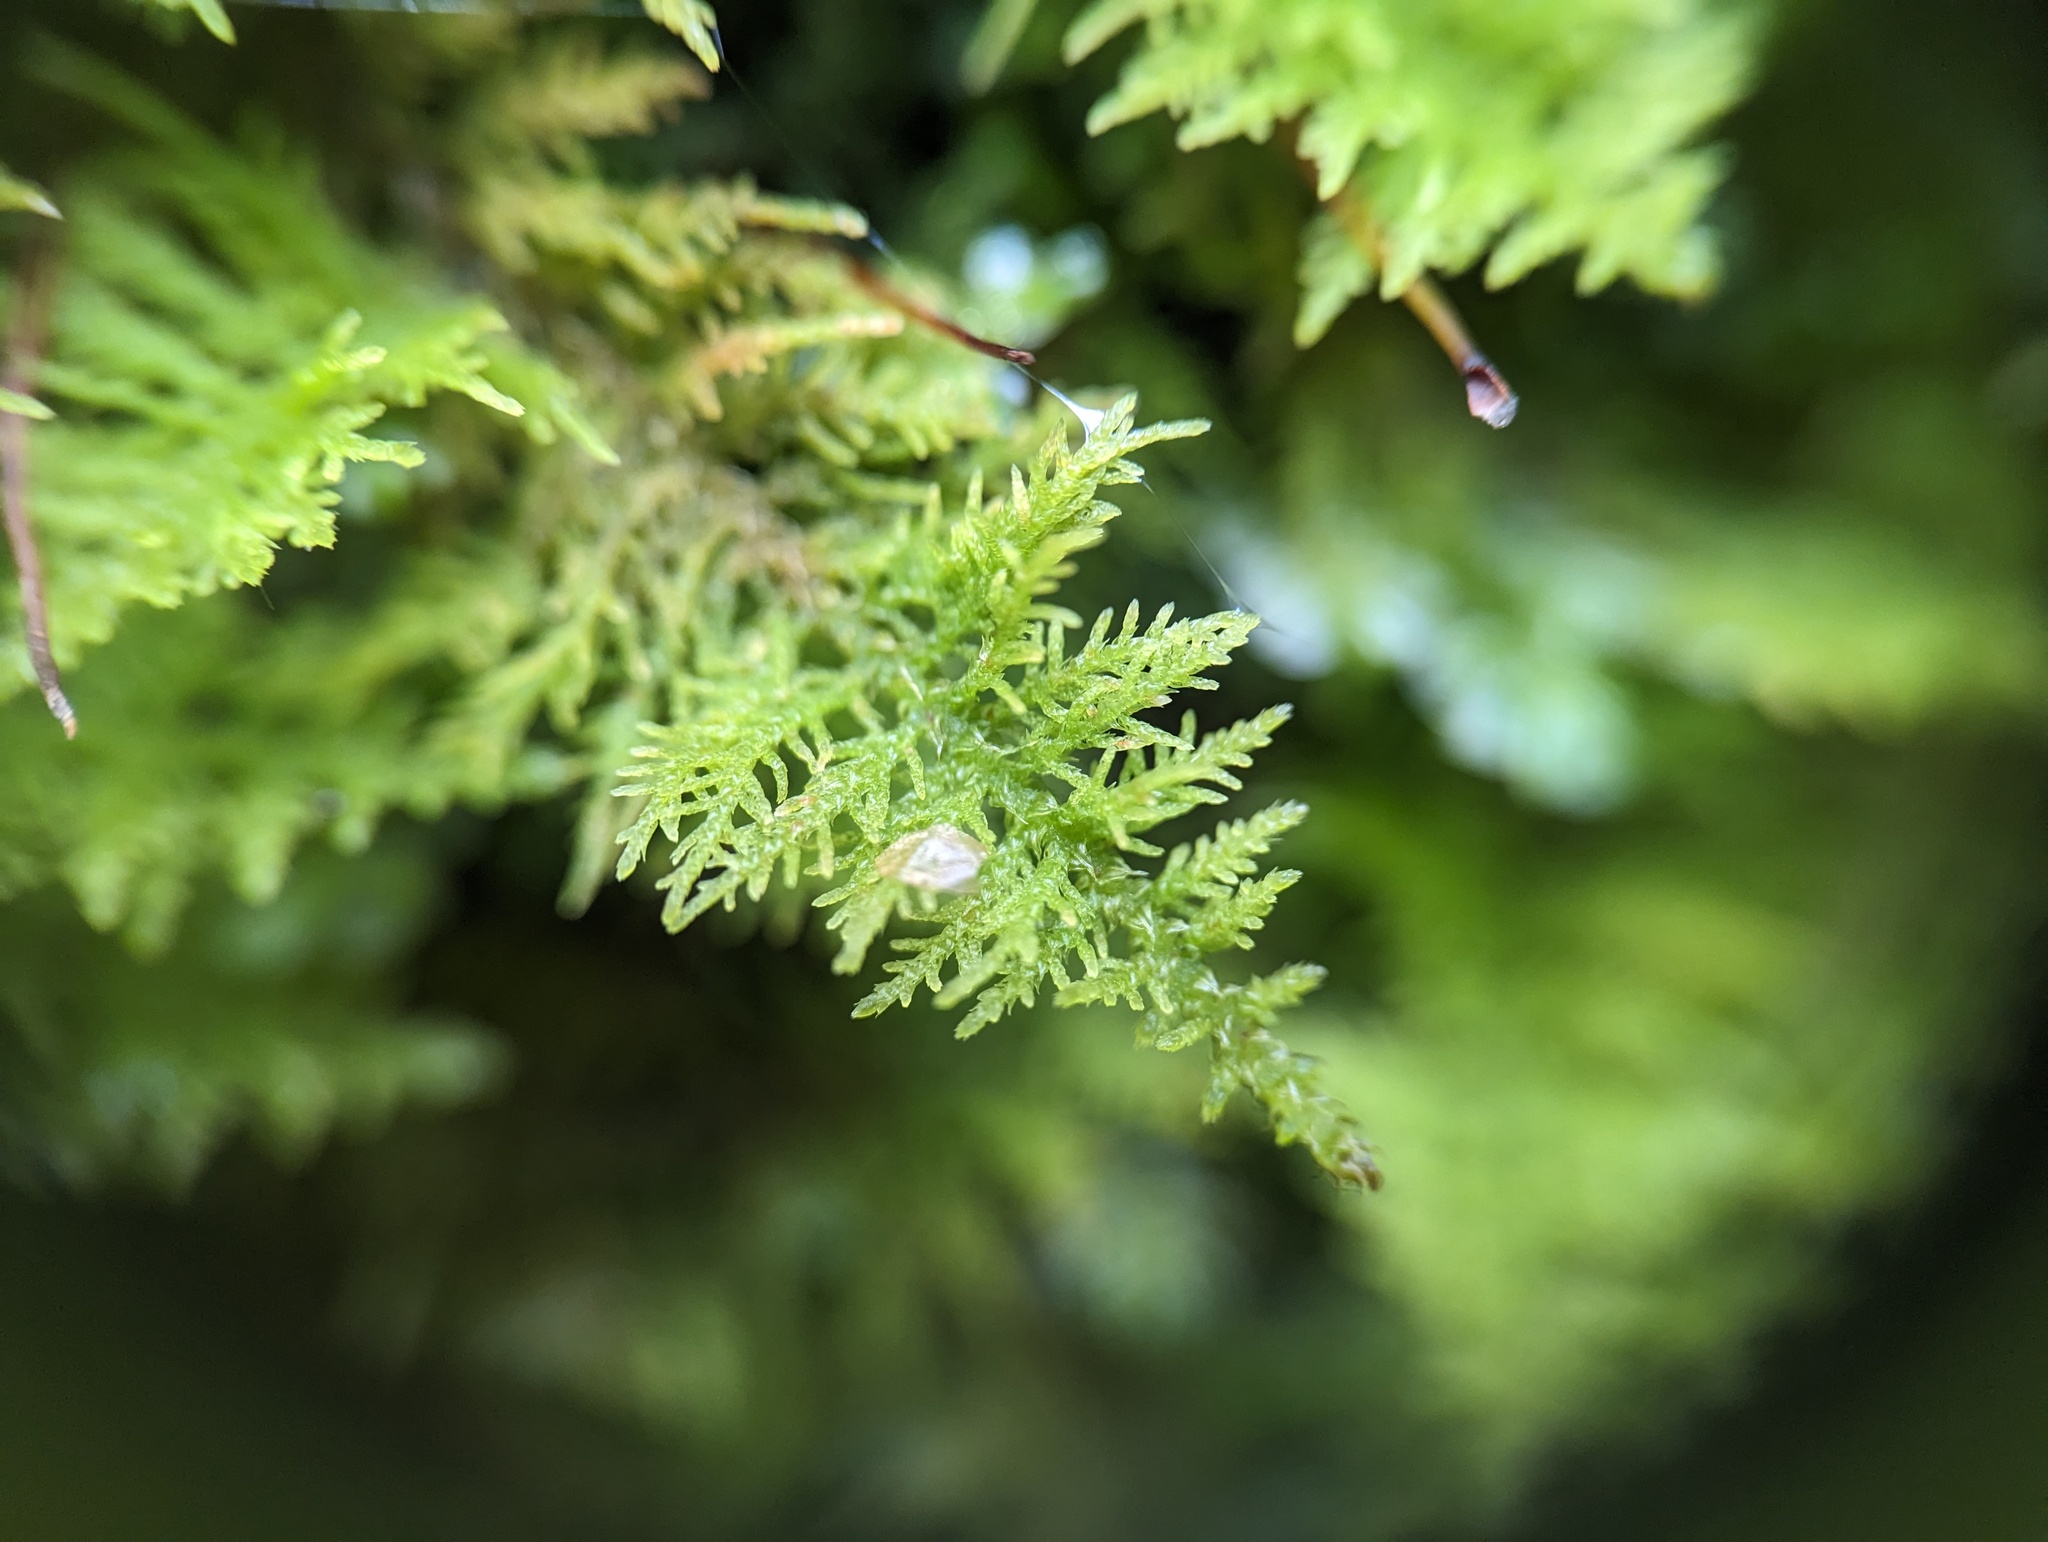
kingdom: Plantae
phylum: Bryophyta
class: Bryopsida
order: Hypnales
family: Thuidiaceae
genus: Thuidium
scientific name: Thuidium delicatulum
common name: Delicate fern moss
